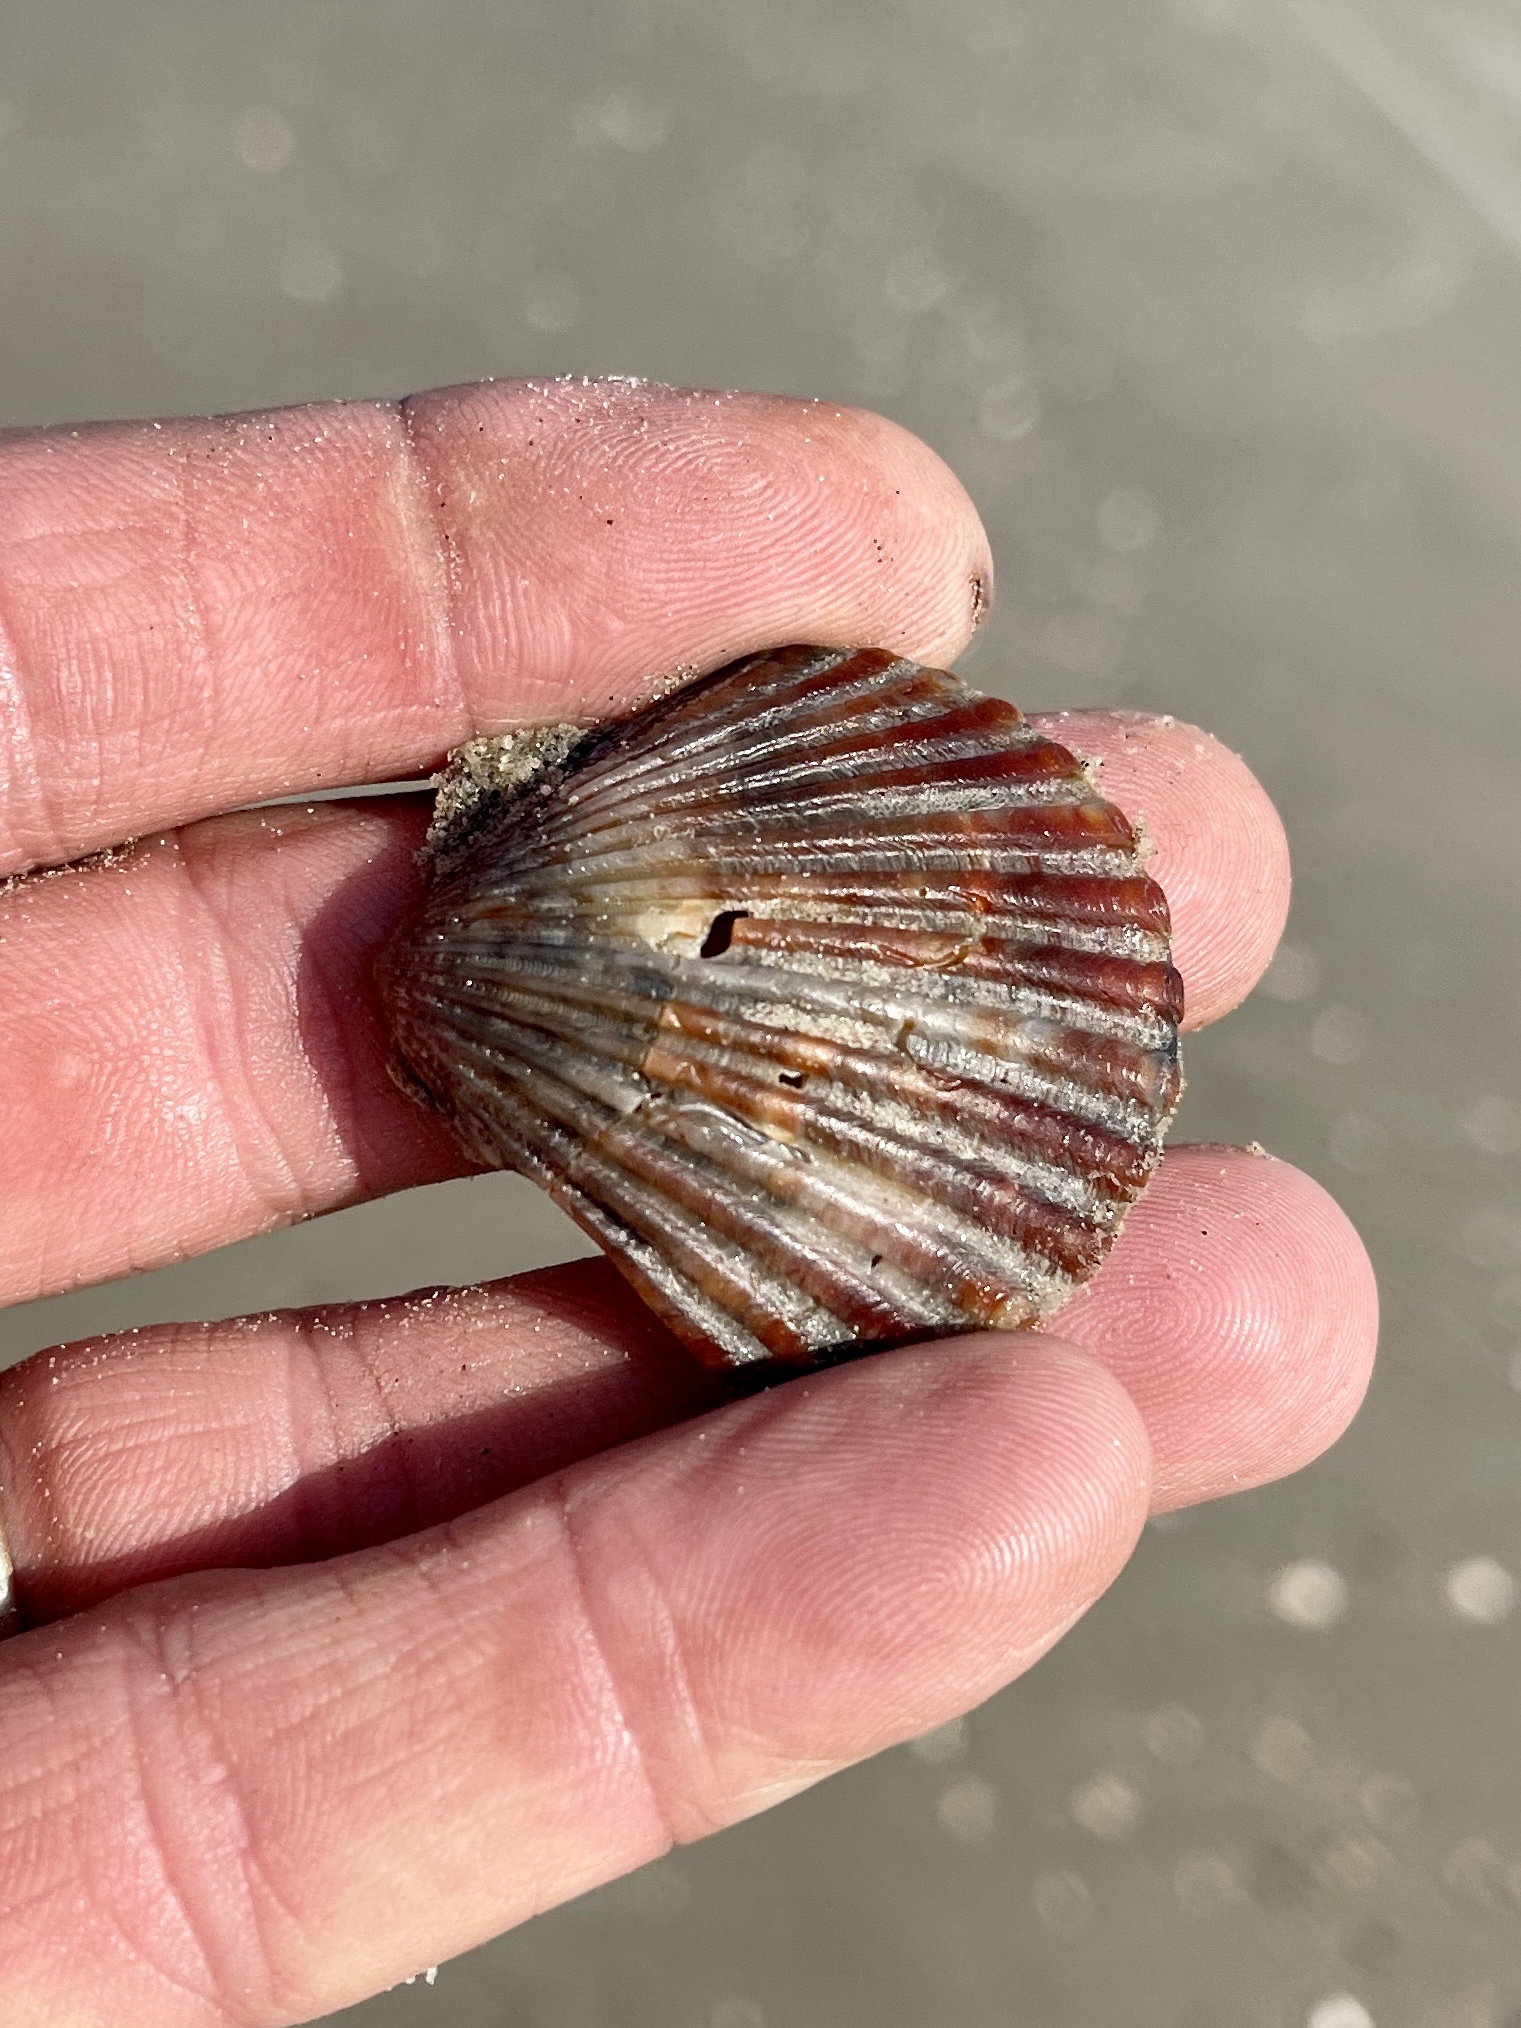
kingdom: Animalia
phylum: Mollusca
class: Bivalvia
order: Pectinida
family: Pectinidae
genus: Argopecten
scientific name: Argopecten irradians
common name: Atlantic bay scallop
